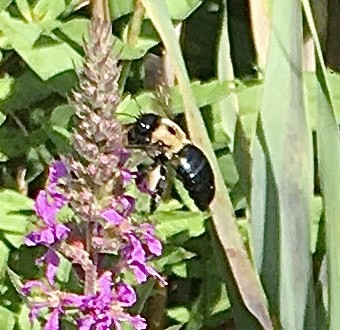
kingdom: Animalia
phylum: Arthropoda
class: Insecta
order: Hymenoptera
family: Apidae
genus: Xylocopa
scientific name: Xylocopa virginica
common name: Carpenter bee
